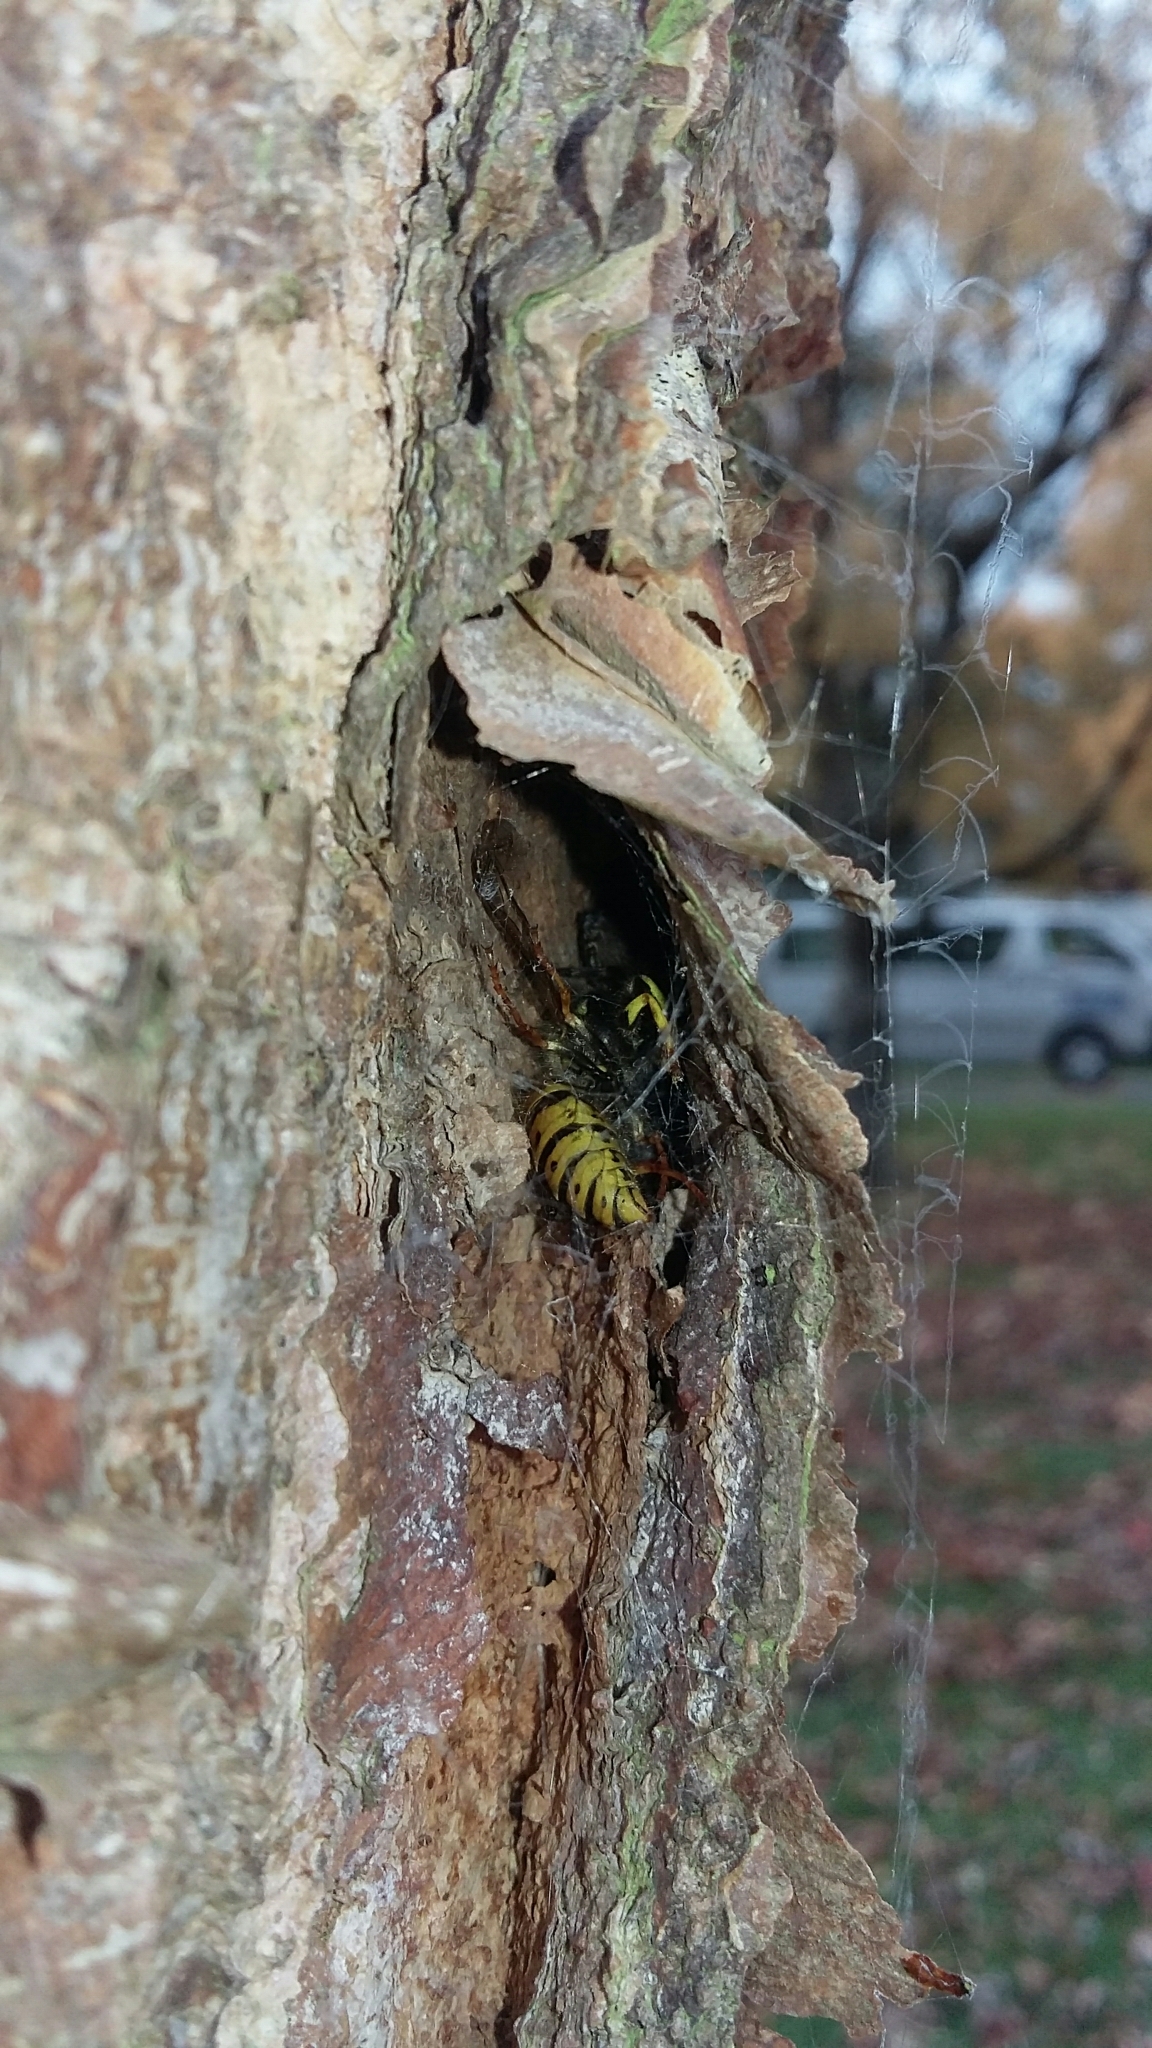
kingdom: Animalia
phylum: Arthropoda
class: Insecta
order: Hymenoptera
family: Vespidae
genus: Vespula
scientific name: Vespula germanica
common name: German wasp
